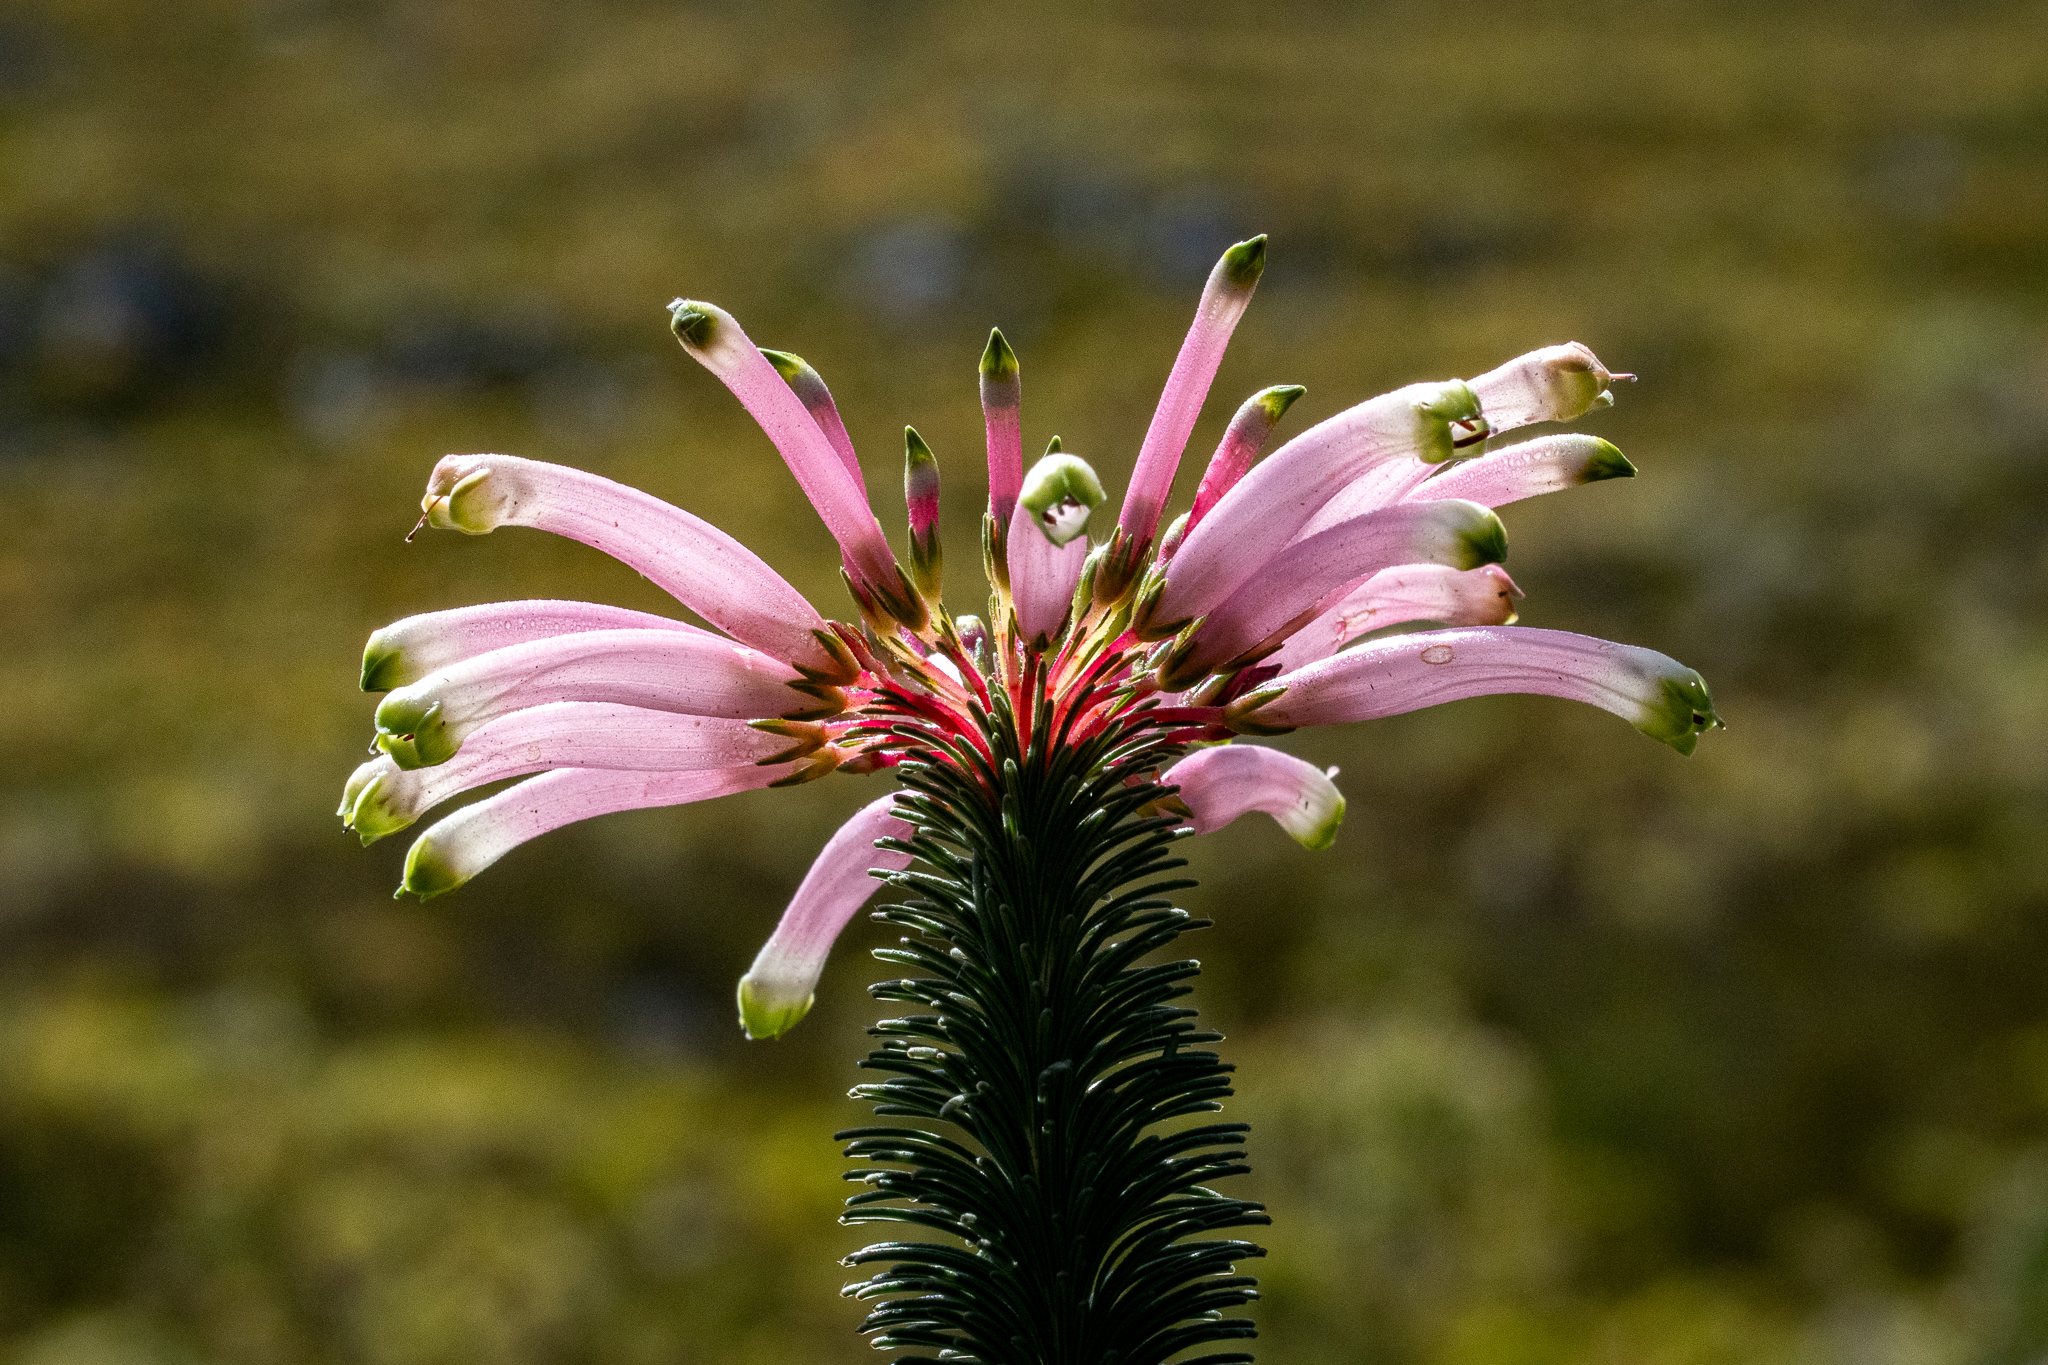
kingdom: Plantae
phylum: Tracheophyta
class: Magnoliopsida
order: Ericales
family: Ericaceae
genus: Erica
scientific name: Erica fascicularis
